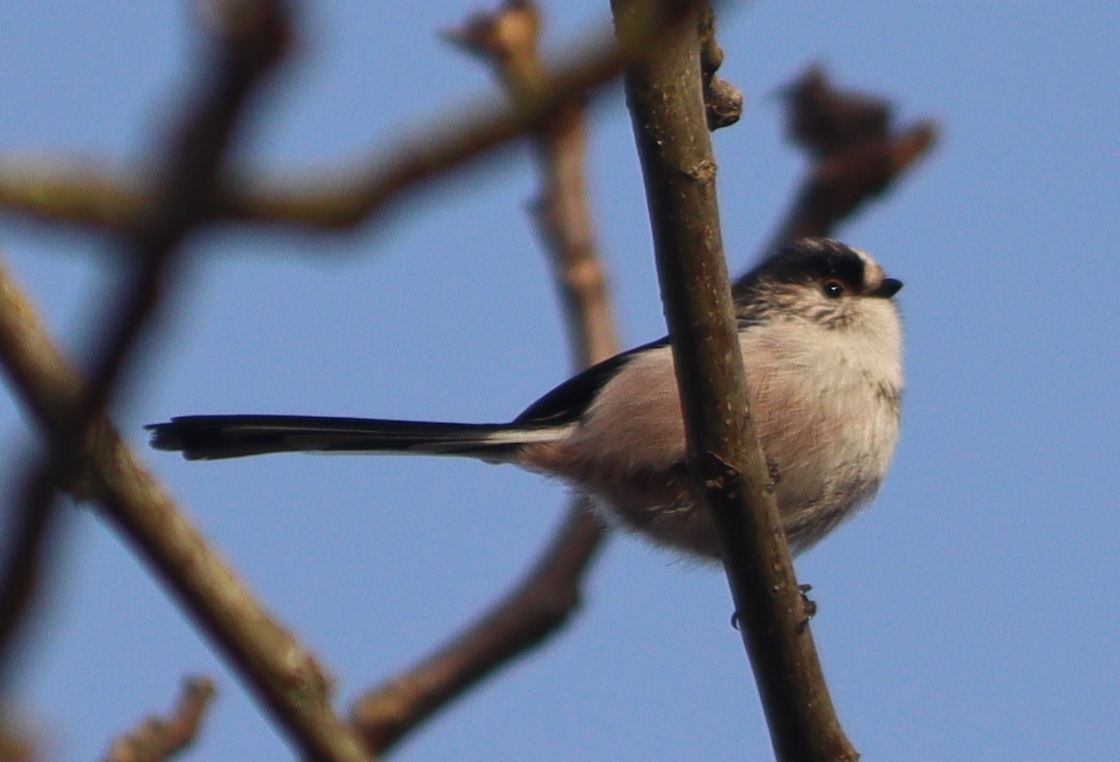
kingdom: Animalia
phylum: Chordata
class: Aves
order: Passeriformes
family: Aegithalidae
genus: Aegithalos
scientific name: Aegithalos caudatus
